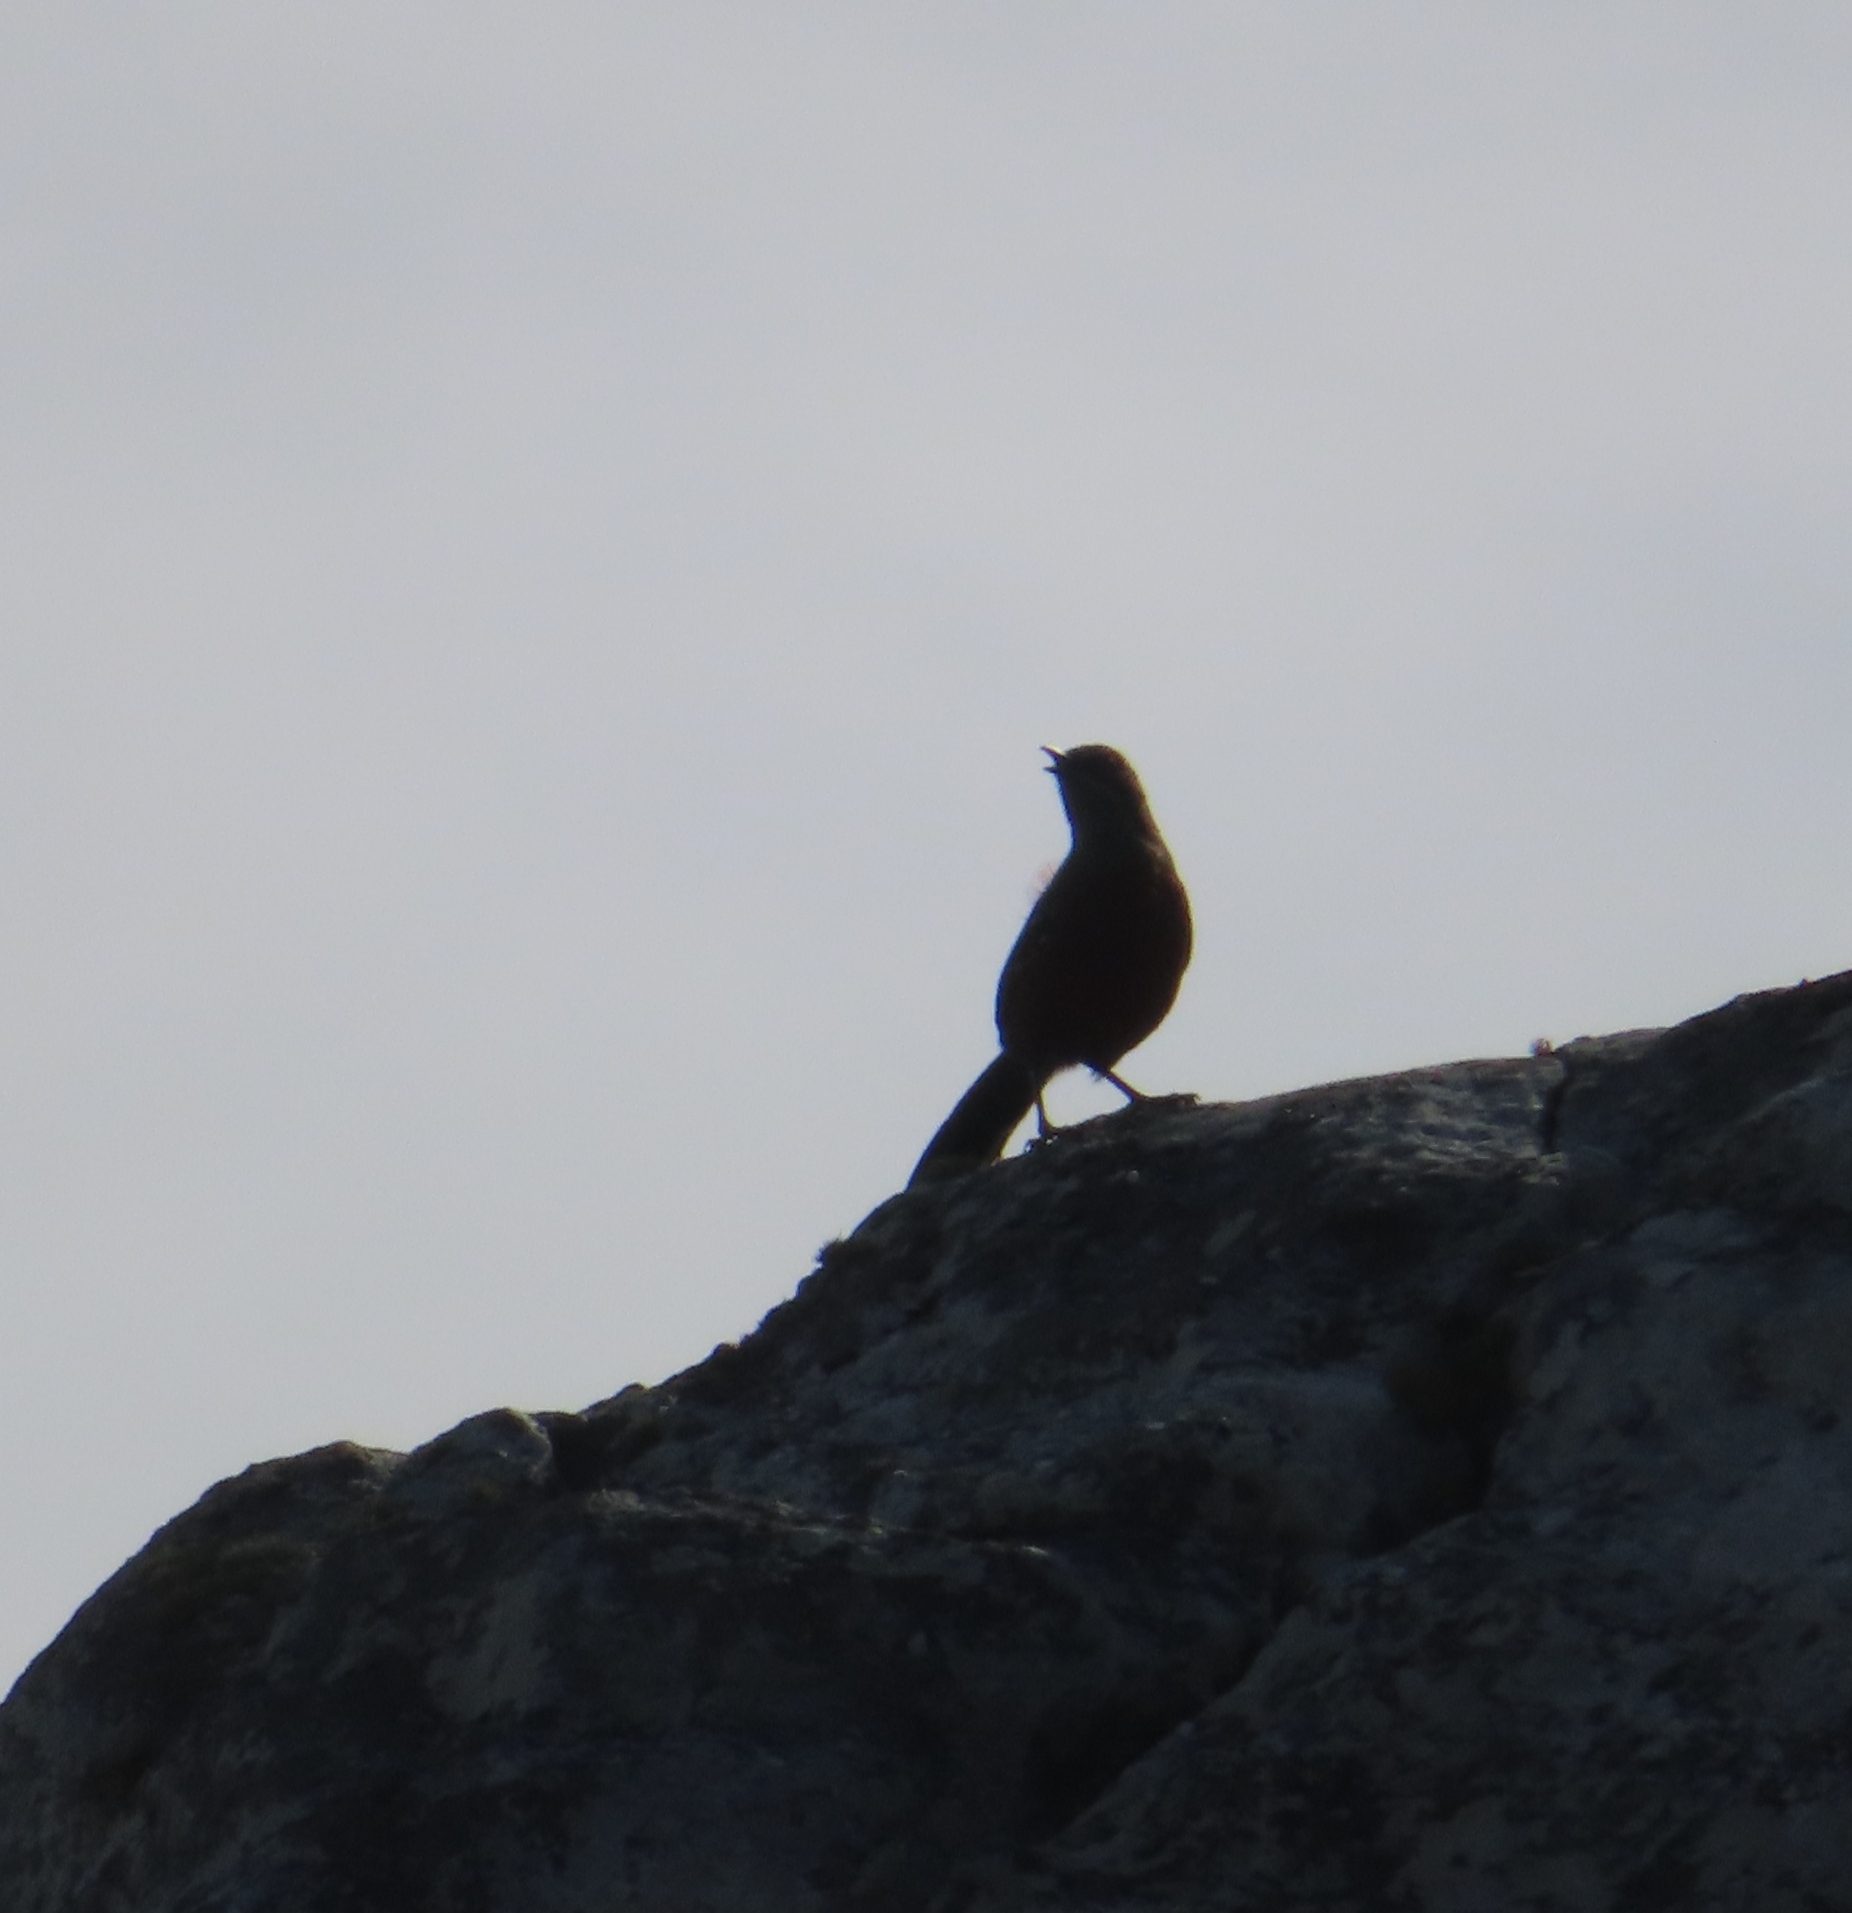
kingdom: Animalia
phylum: Chordata
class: Aves
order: Passeriformes
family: Chaetopidae
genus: Chaetops
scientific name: Chaetops frenatus
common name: Cape rockjumper
